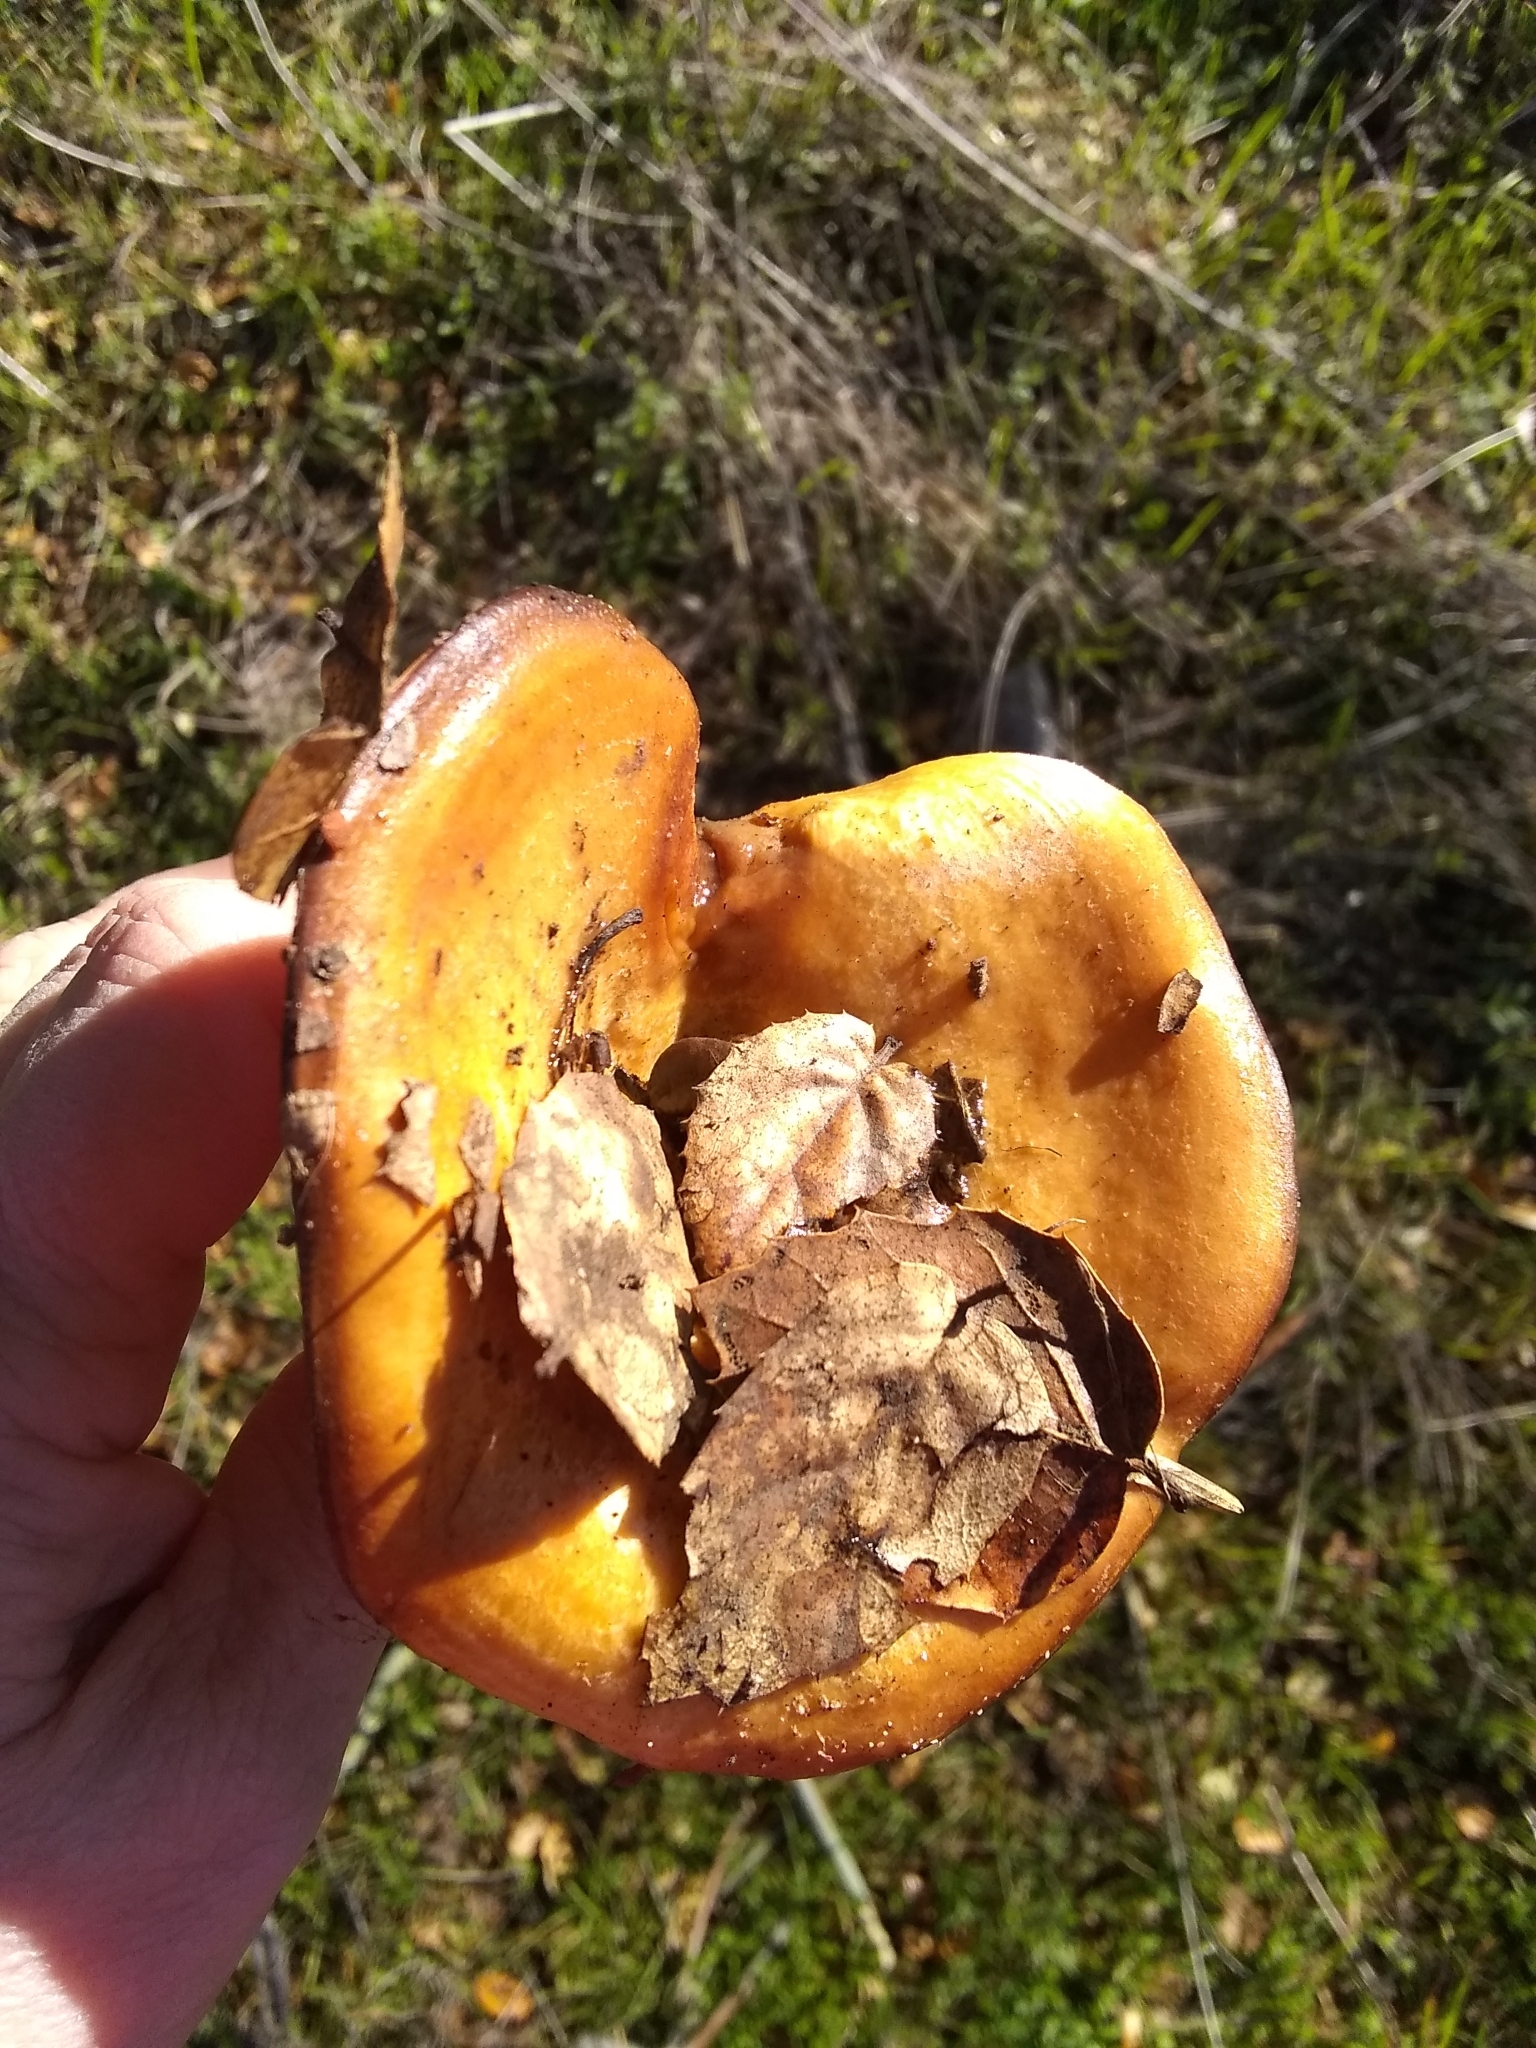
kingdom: Fungi
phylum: Basidiomycota
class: Agaricomycetes
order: Russulales
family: Russulaceae
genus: Lactarius
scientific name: Lactarius alnicola
